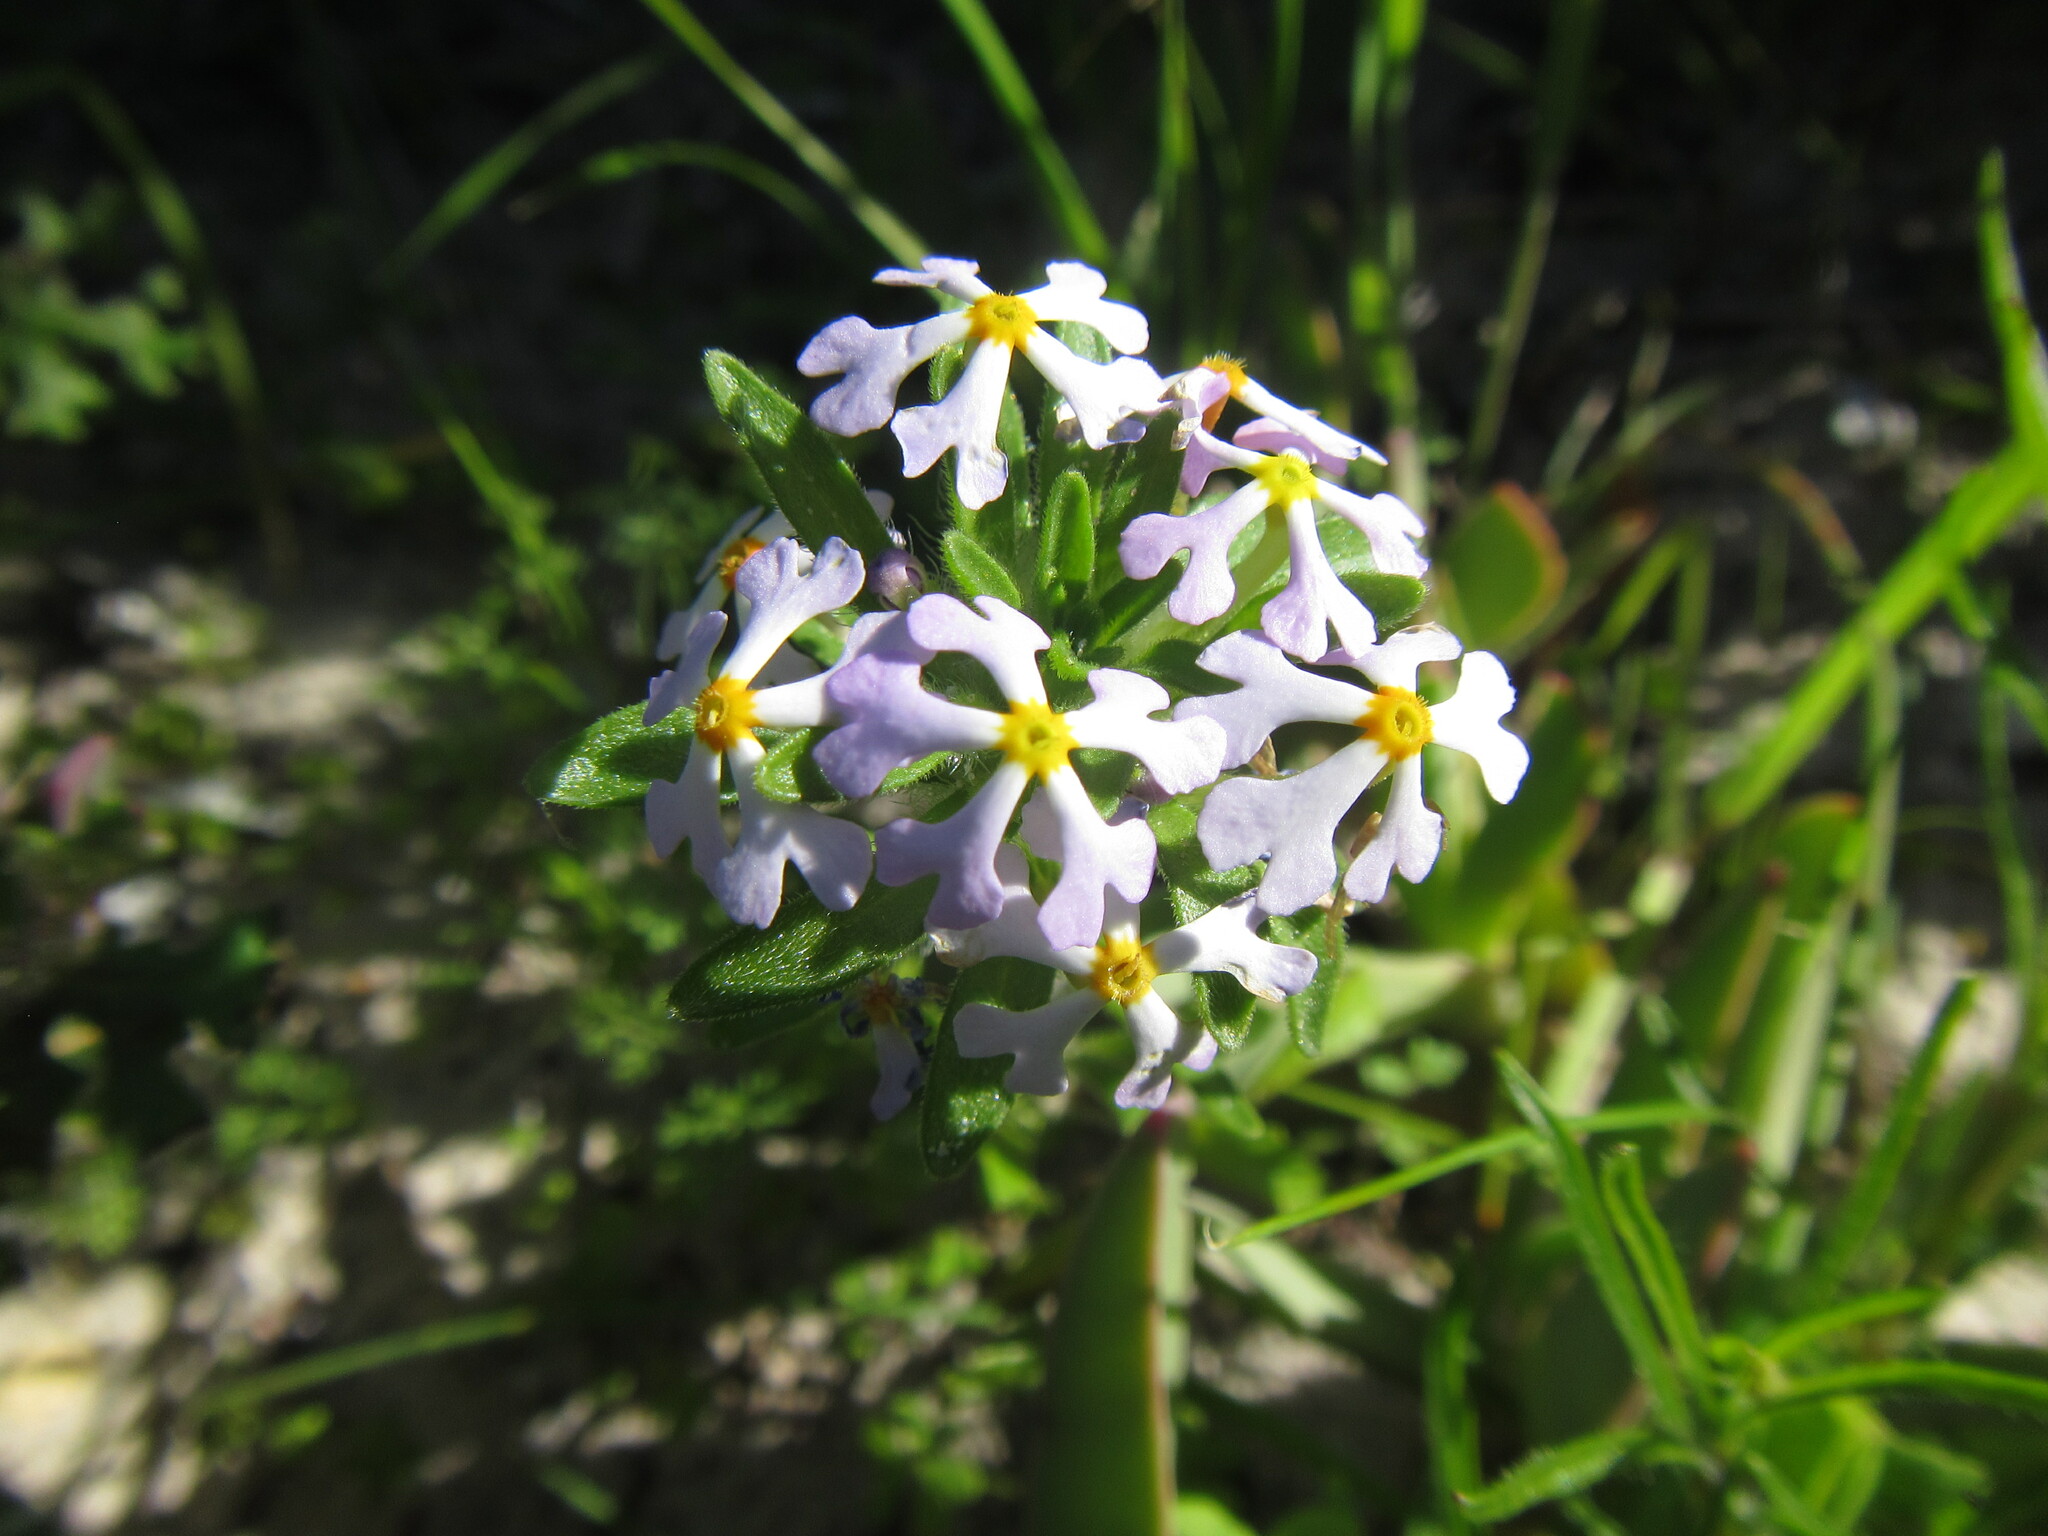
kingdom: Plantae
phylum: Tracheophyta
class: Magnoliopsida
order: Lamiales
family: Scrophulariaceae
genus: Zaluzianskya
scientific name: Zaluzianskya villosa
